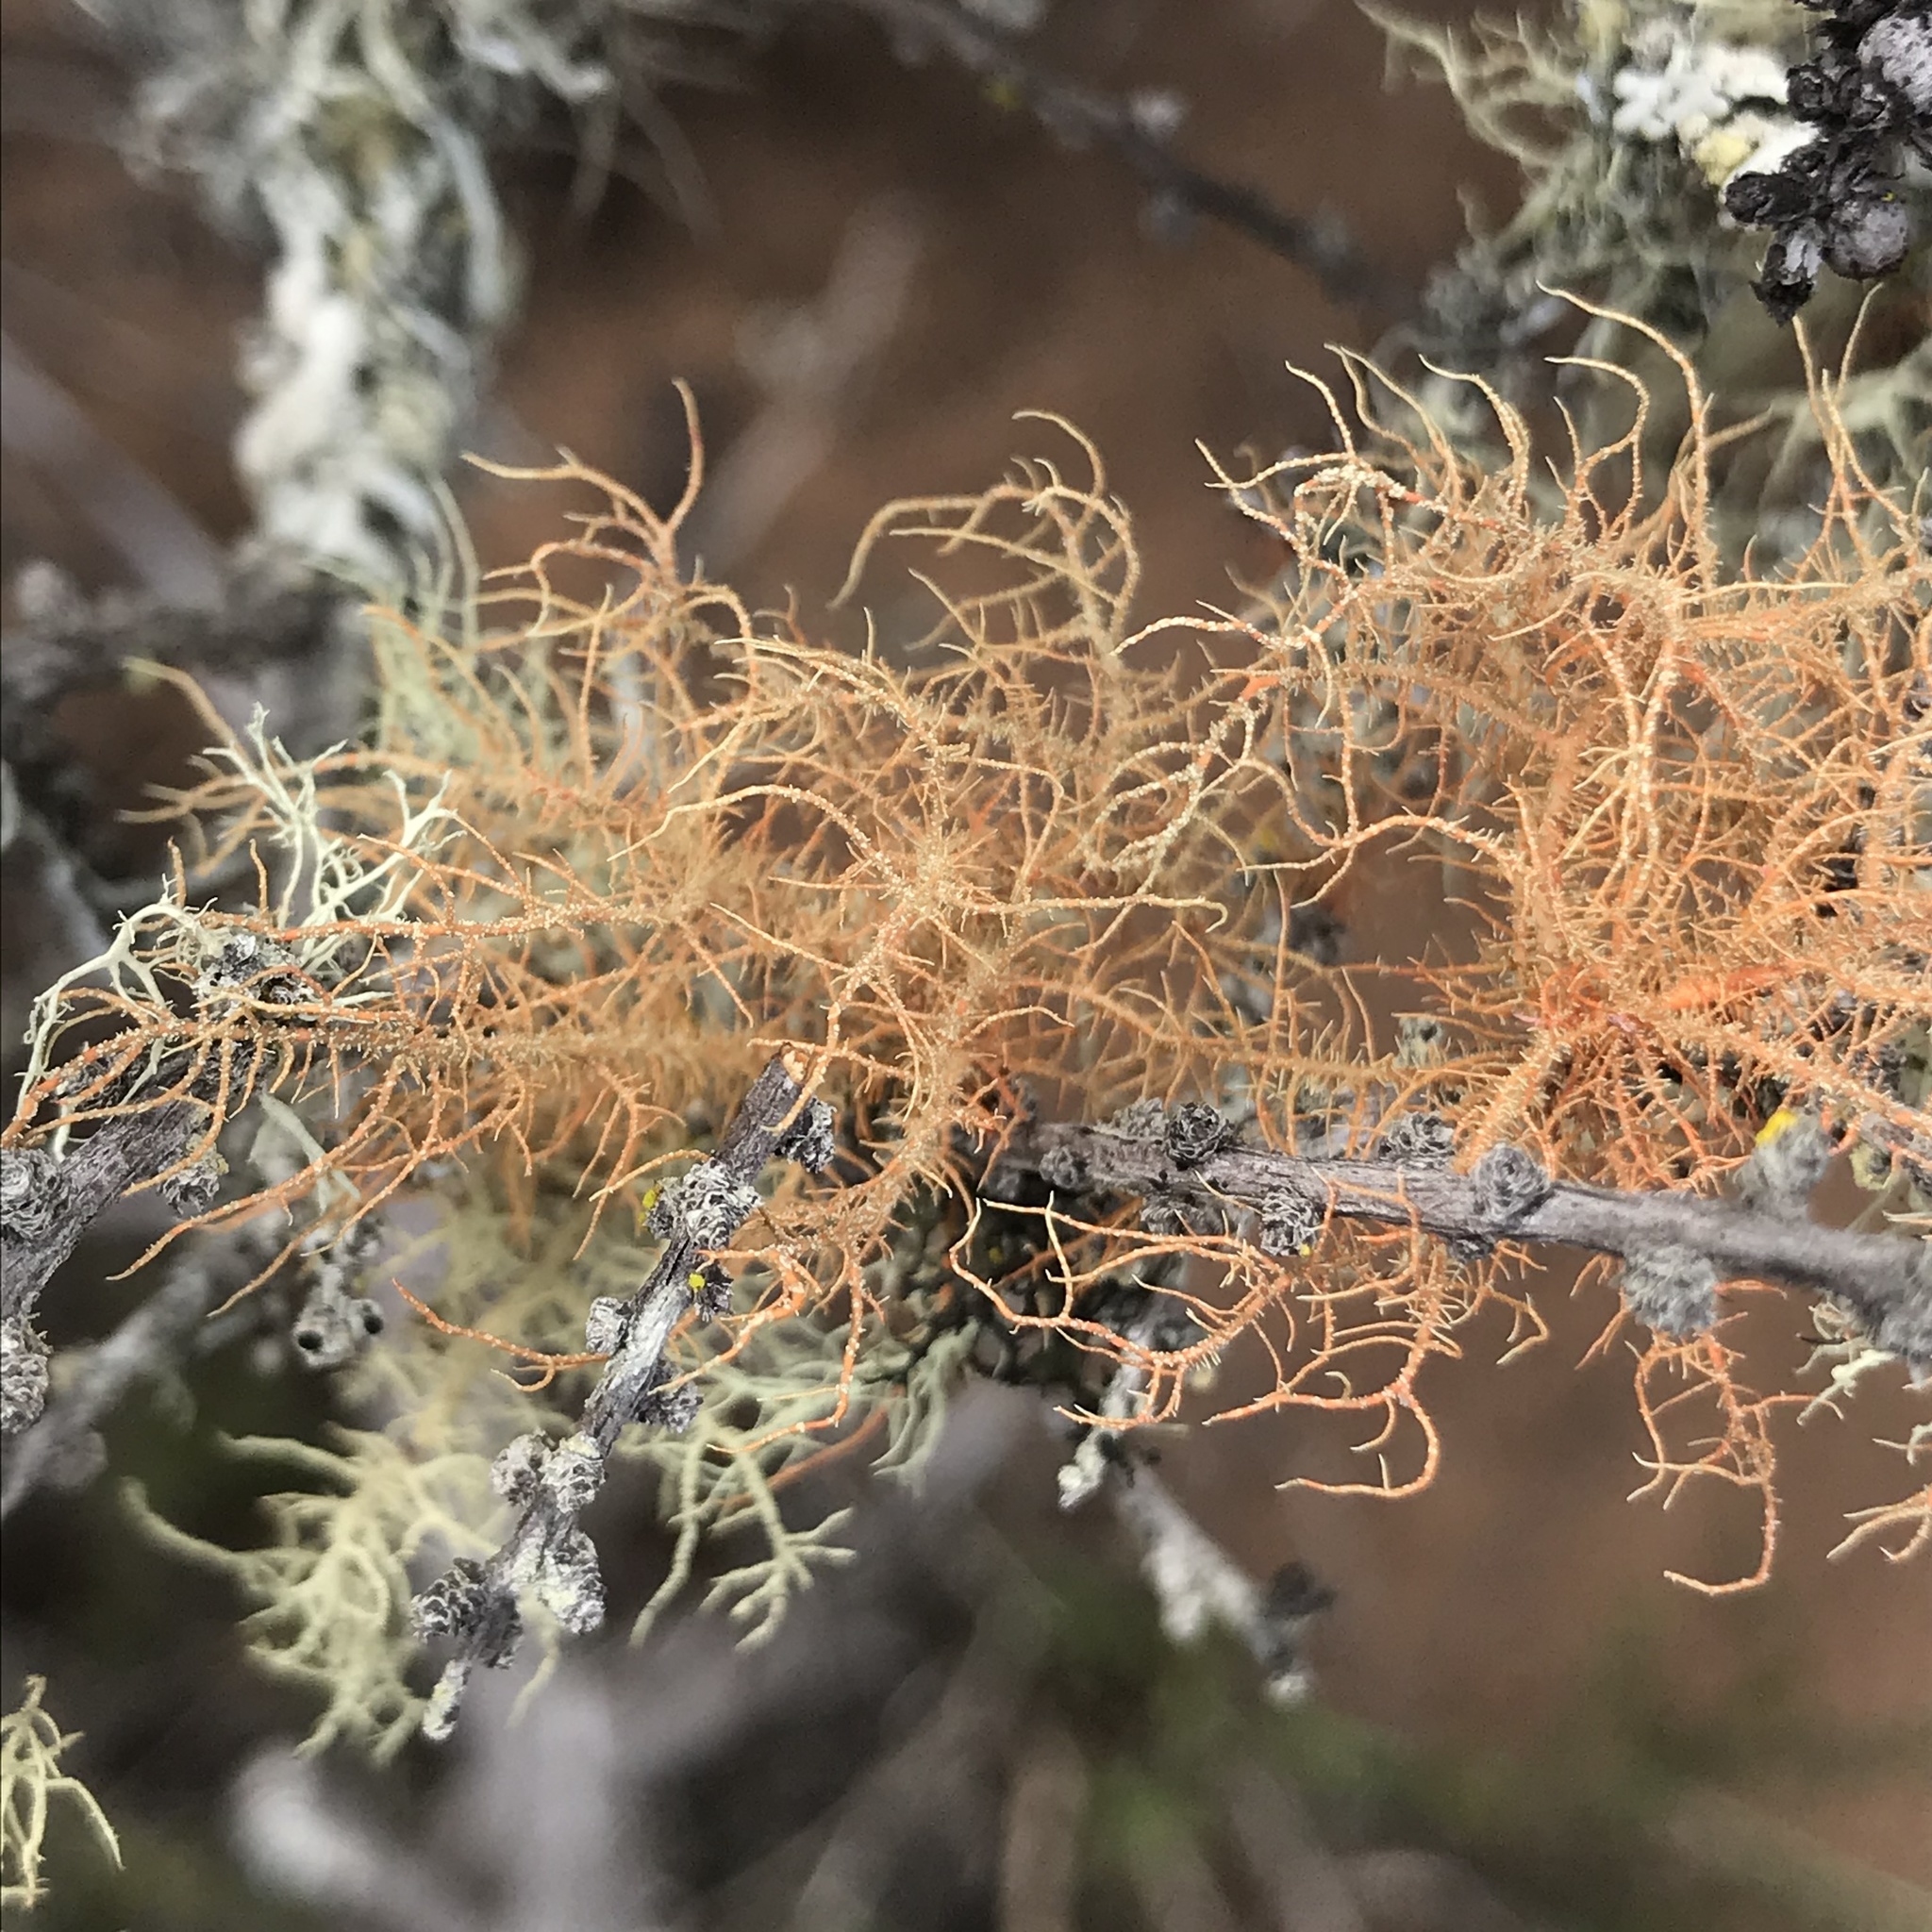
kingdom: Fungi
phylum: Ascomycota
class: Lecanoromycetes
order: Lecanorales
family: Parmeliaceae
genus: Usnea
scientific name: Usnea rubicunda
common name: Red beard lichen
